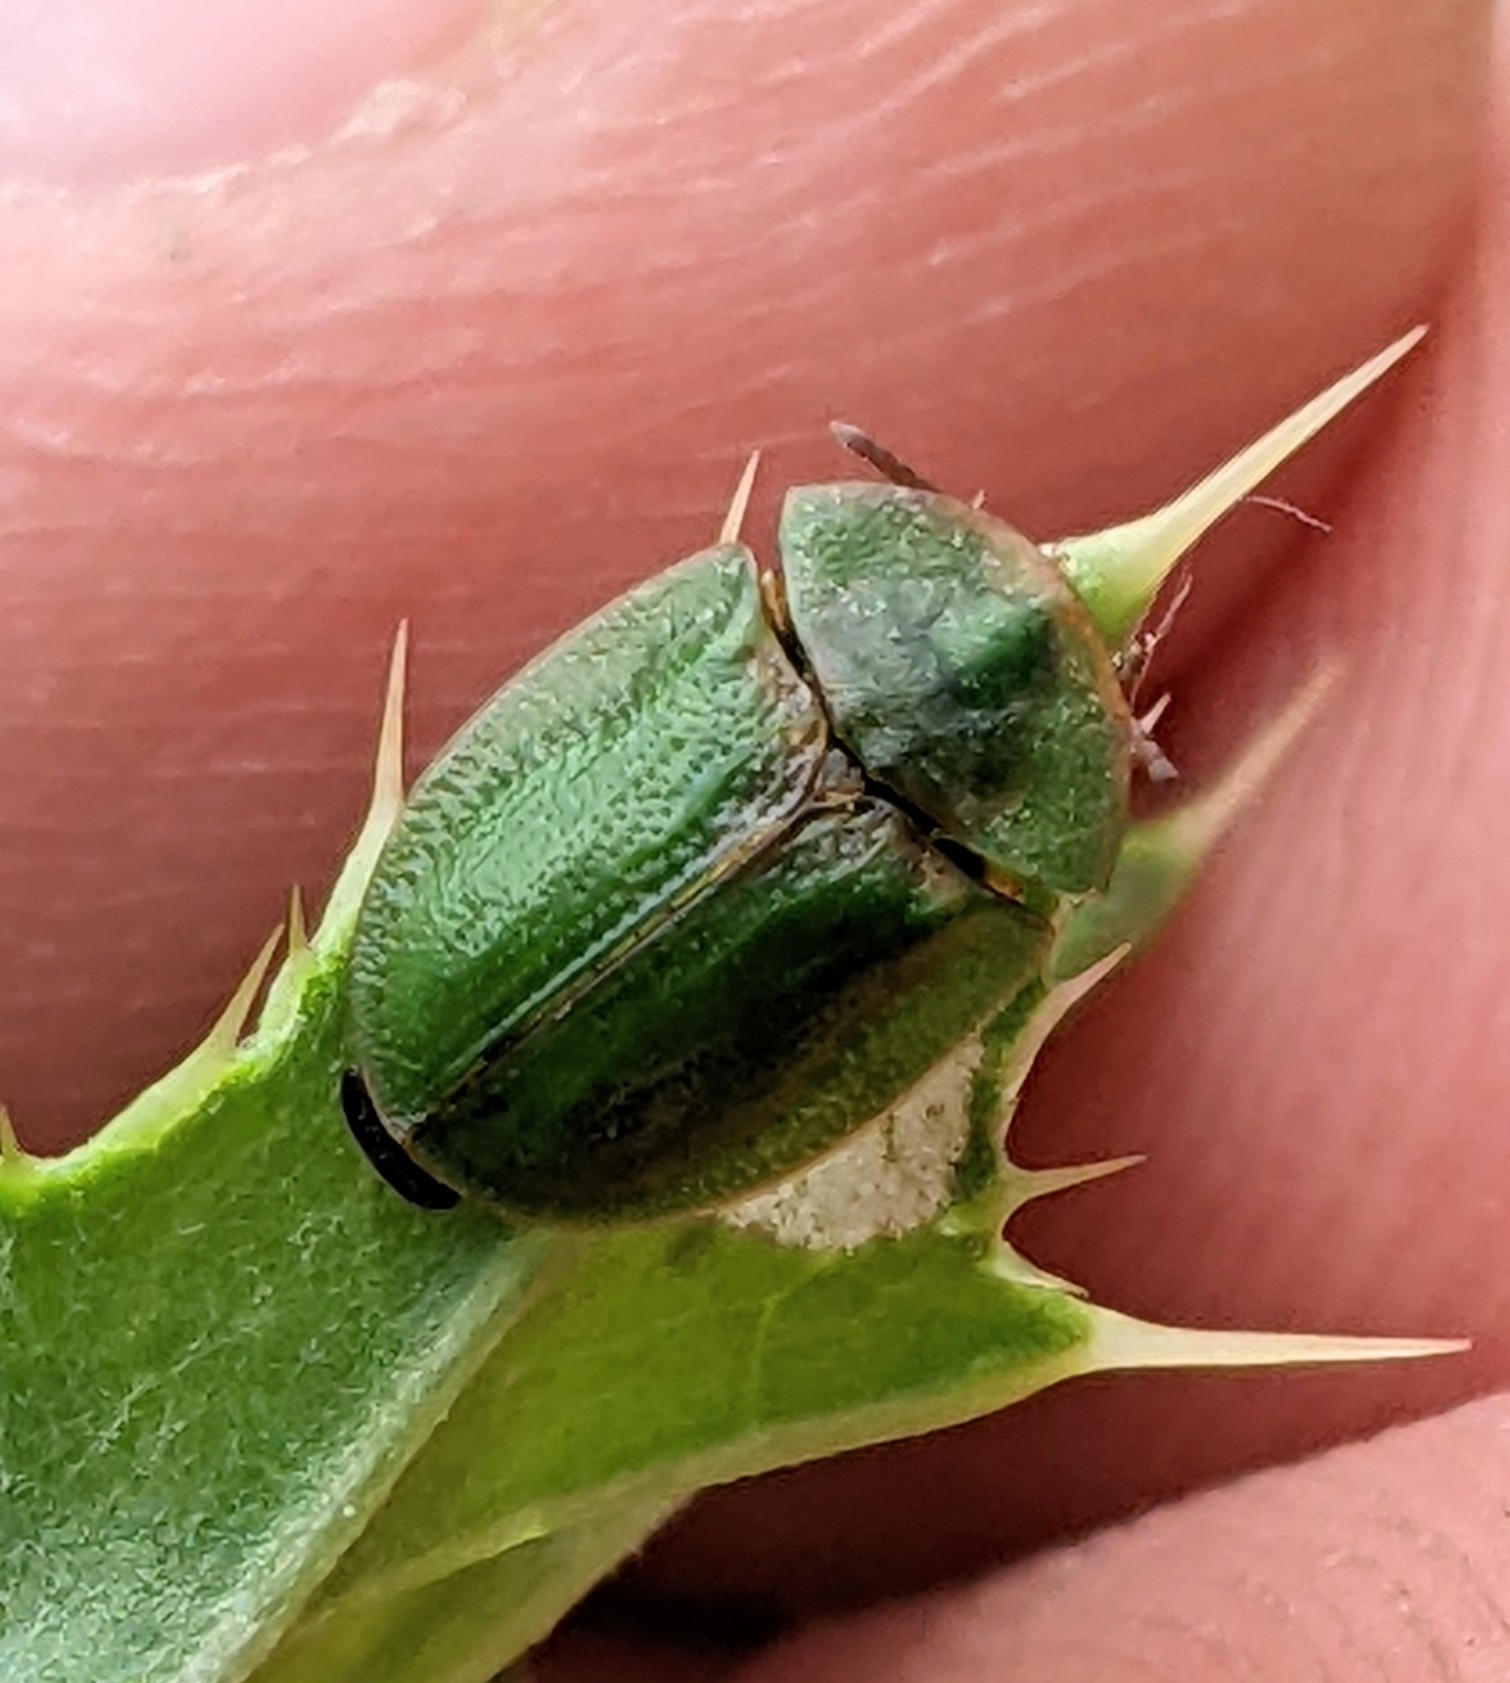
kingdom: Animalia
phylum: Arthropoda
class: Insecta
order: Coleoptera
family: Chrysomelidae
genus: Cassida
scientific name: Cassida rubiginosa
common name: Thistle tortoise beetle
